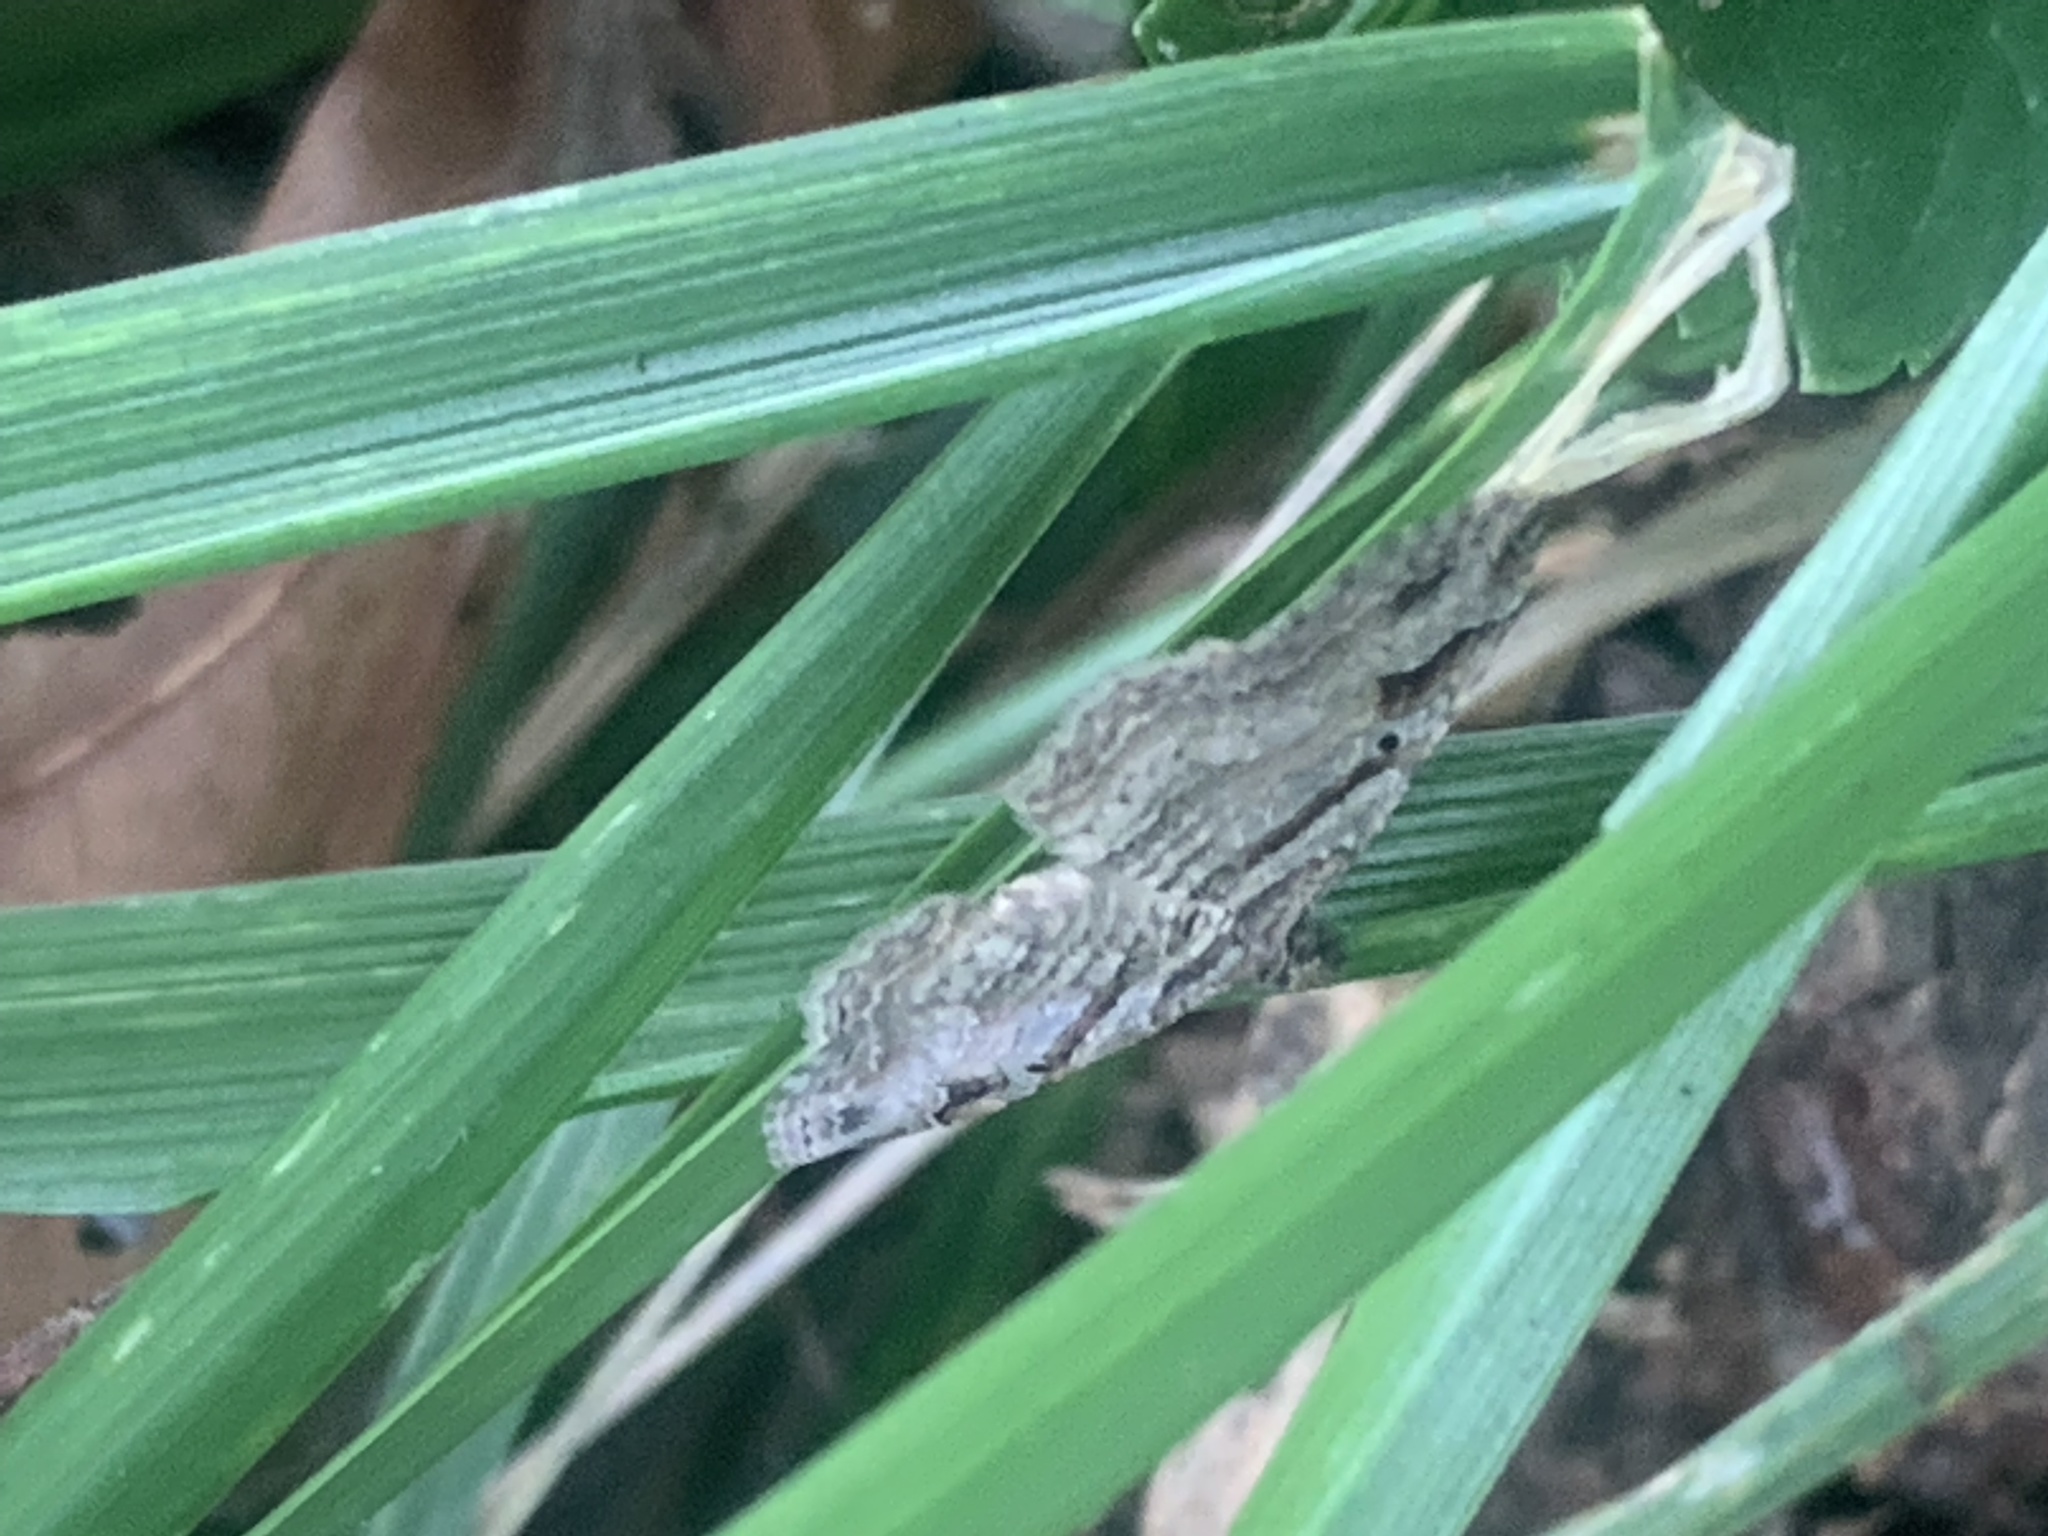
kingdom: Animalia
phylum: Arthropoda
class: Insecta
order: Lepidoptera
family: Geometridae
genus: Costaconvexa
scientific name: Costaconvexa centrostrigaria
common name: Bent-line carpet
